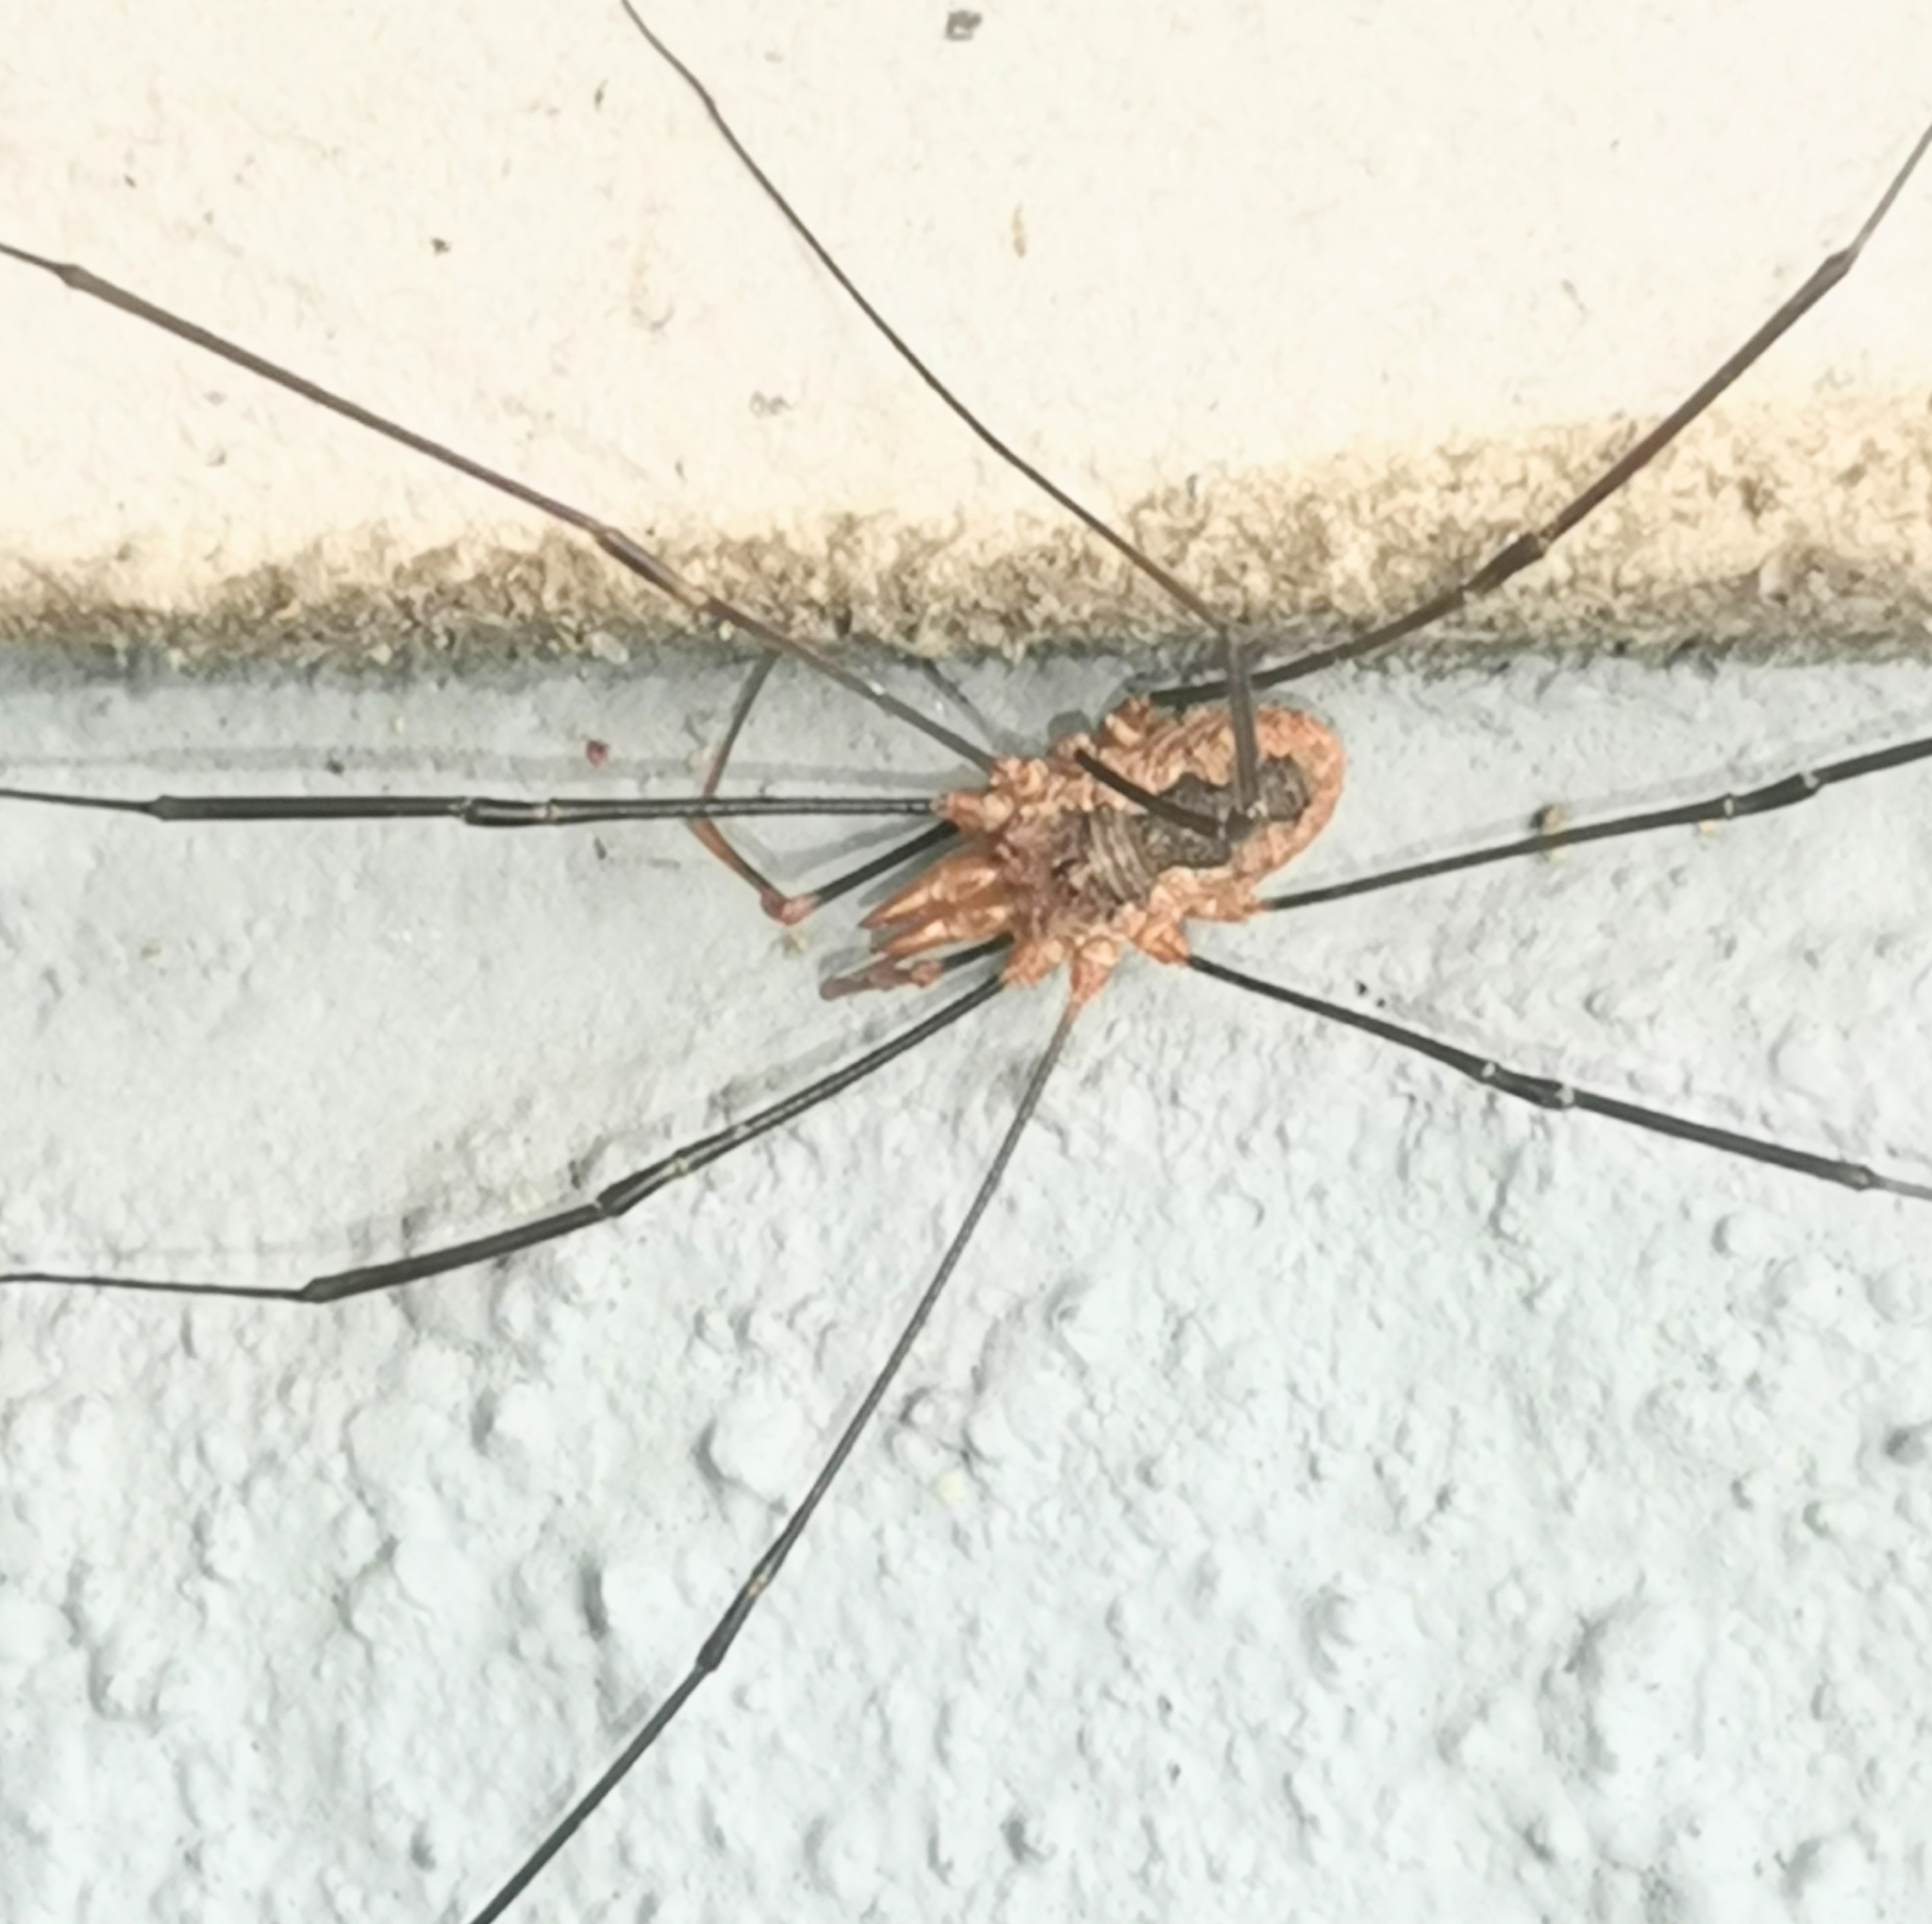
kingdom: Animalia
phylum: Arthropoda
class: Arachnida
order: Opiliones
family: Phalangiidae
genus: Phalangium
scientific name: Phalangium opilio
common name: Daddy longleg
